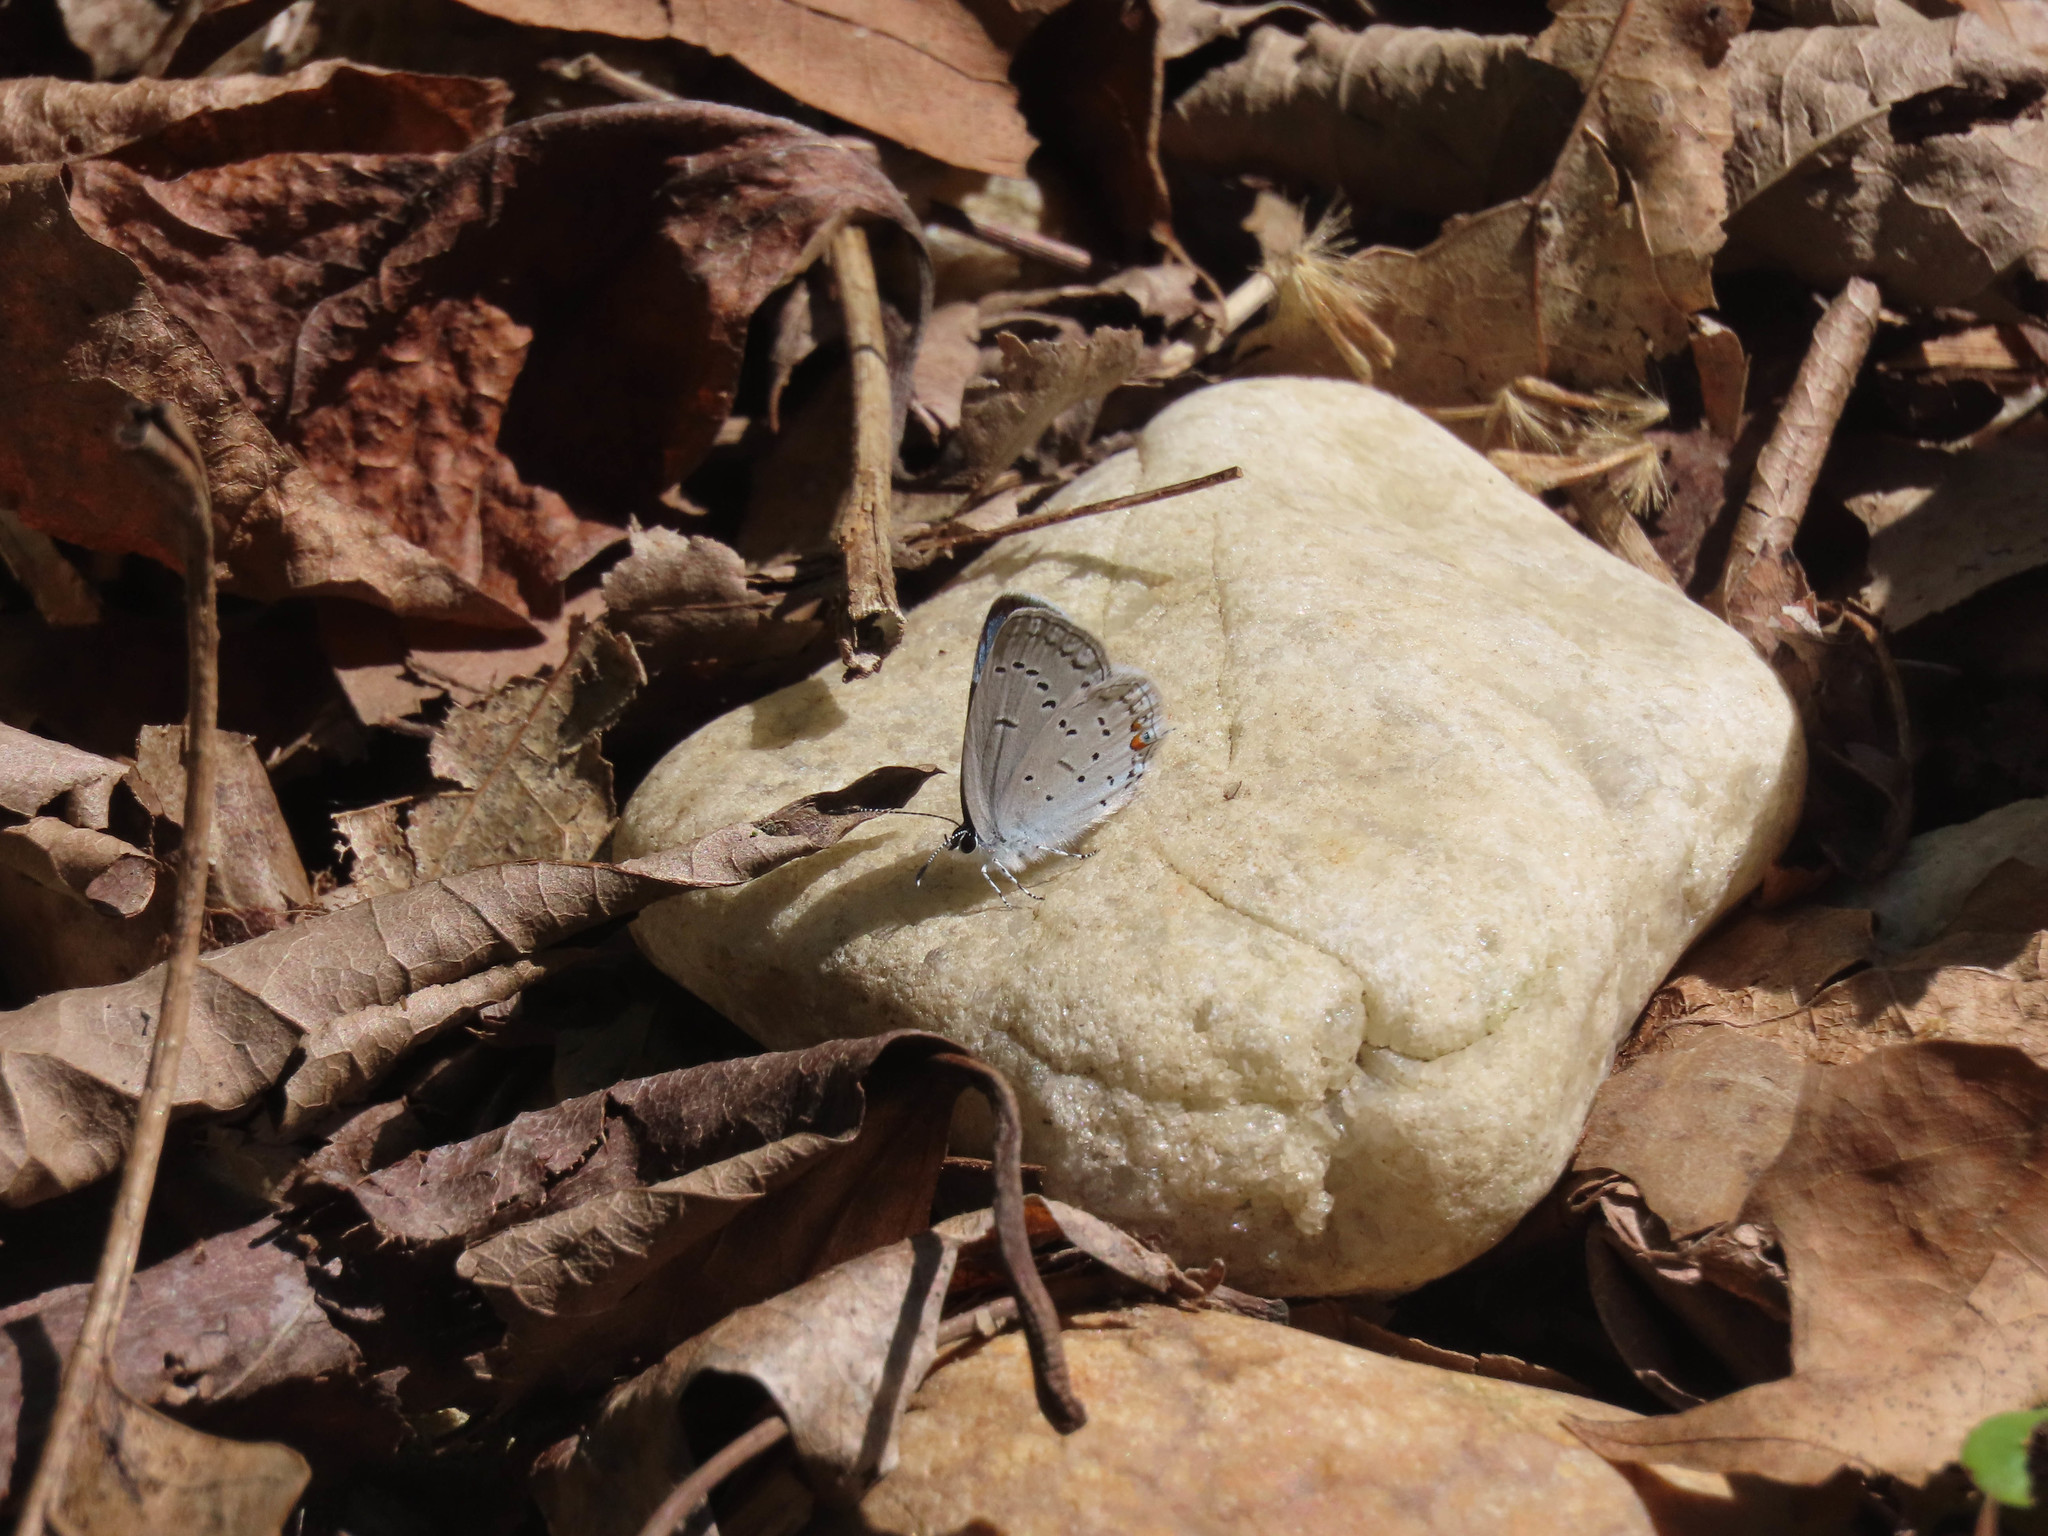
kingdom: Animalia
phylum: Arthropoda
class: Insecta
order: Lepidoptera
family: Lycaenidae
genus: Elkalyce
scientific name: Elkalyce comyntas
